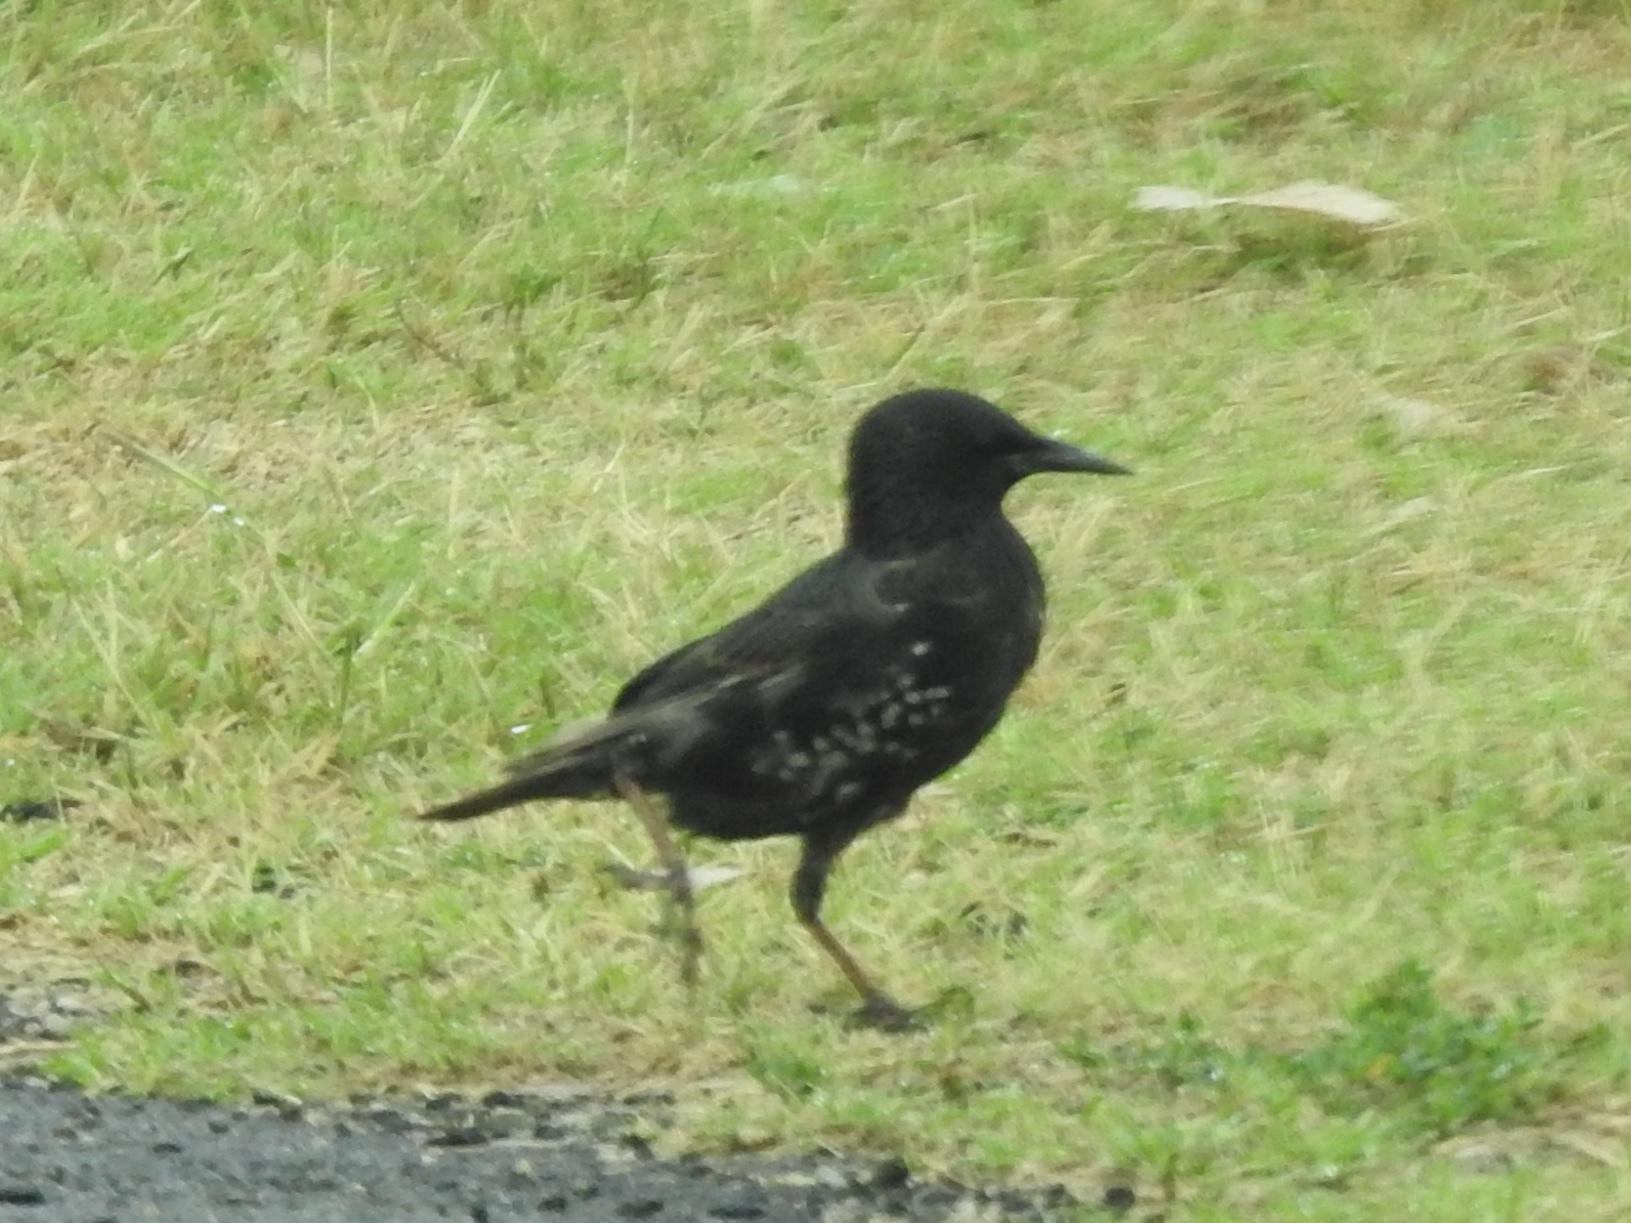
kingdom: Animalia
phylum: Chordata
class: Aves
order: Passeriformes
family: Sturnidae
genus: Sturnus
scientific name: Sturnus vulgaris
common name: Common starling
